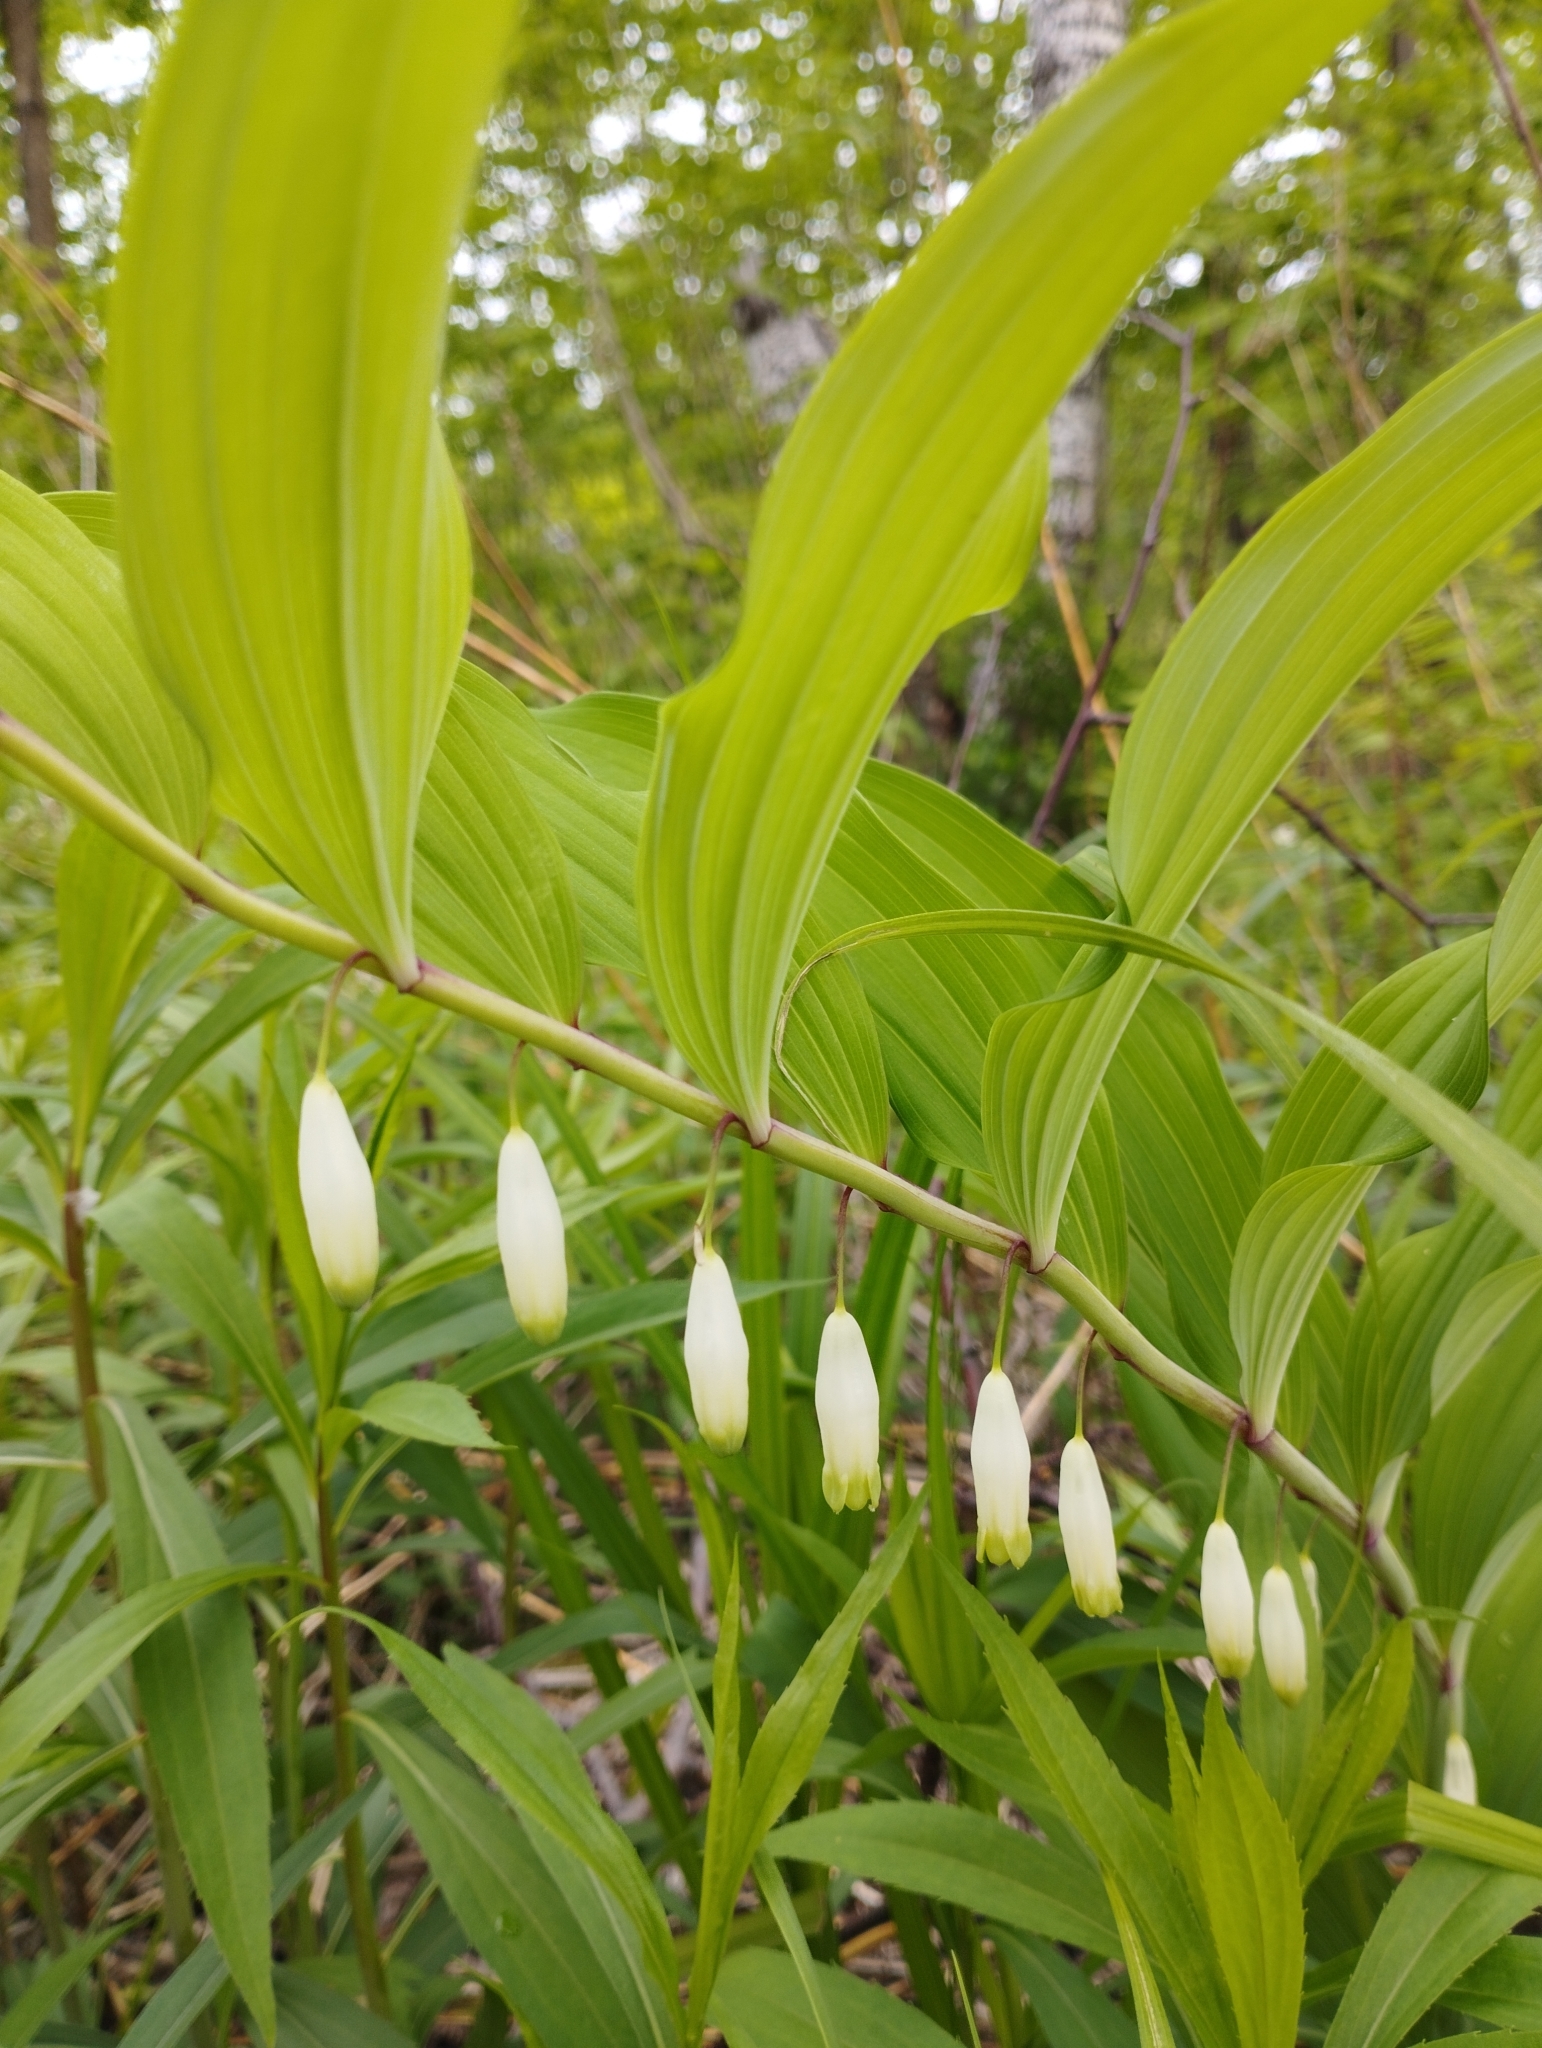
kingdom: Plantae
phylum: Tracheophyta
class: Liliopsida
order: Asparagales
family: Asparagaceae
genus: Polygonatum
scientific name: Polygonatum odoratum
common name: Angular solomon's-seal
